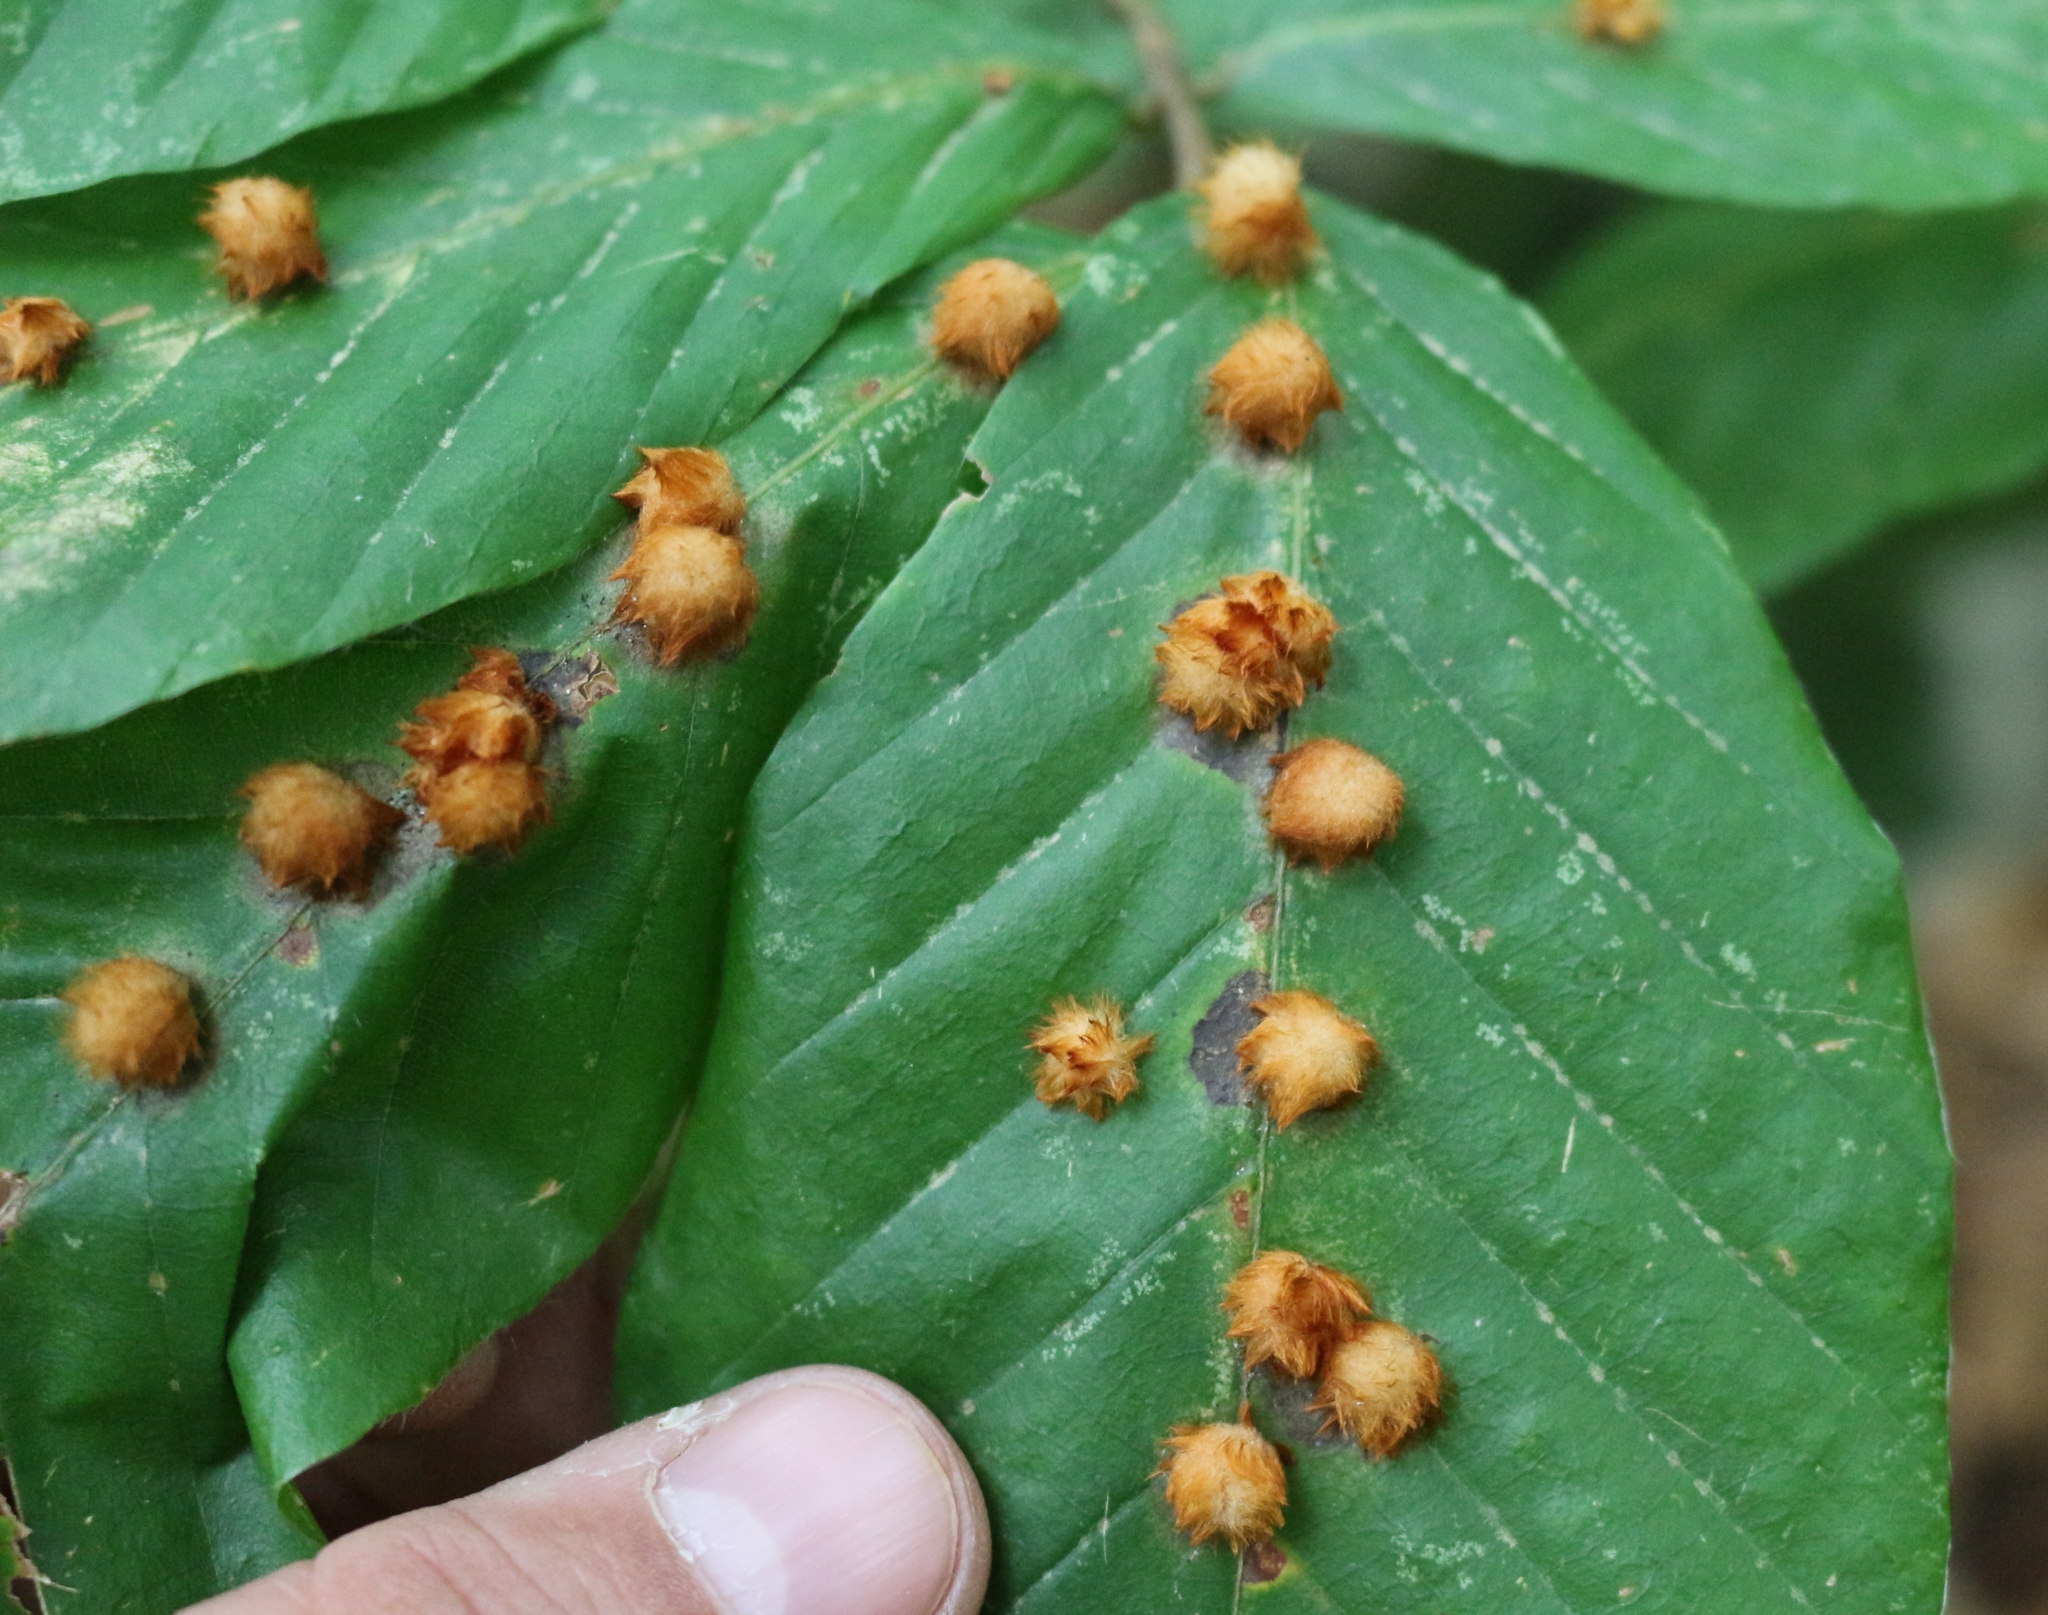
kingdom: Animalia
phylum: Arthropoda
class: Insecta
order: Diptera
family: Cecidomyiidae
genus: Hartigiola
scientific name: Hartigiola annulipes
